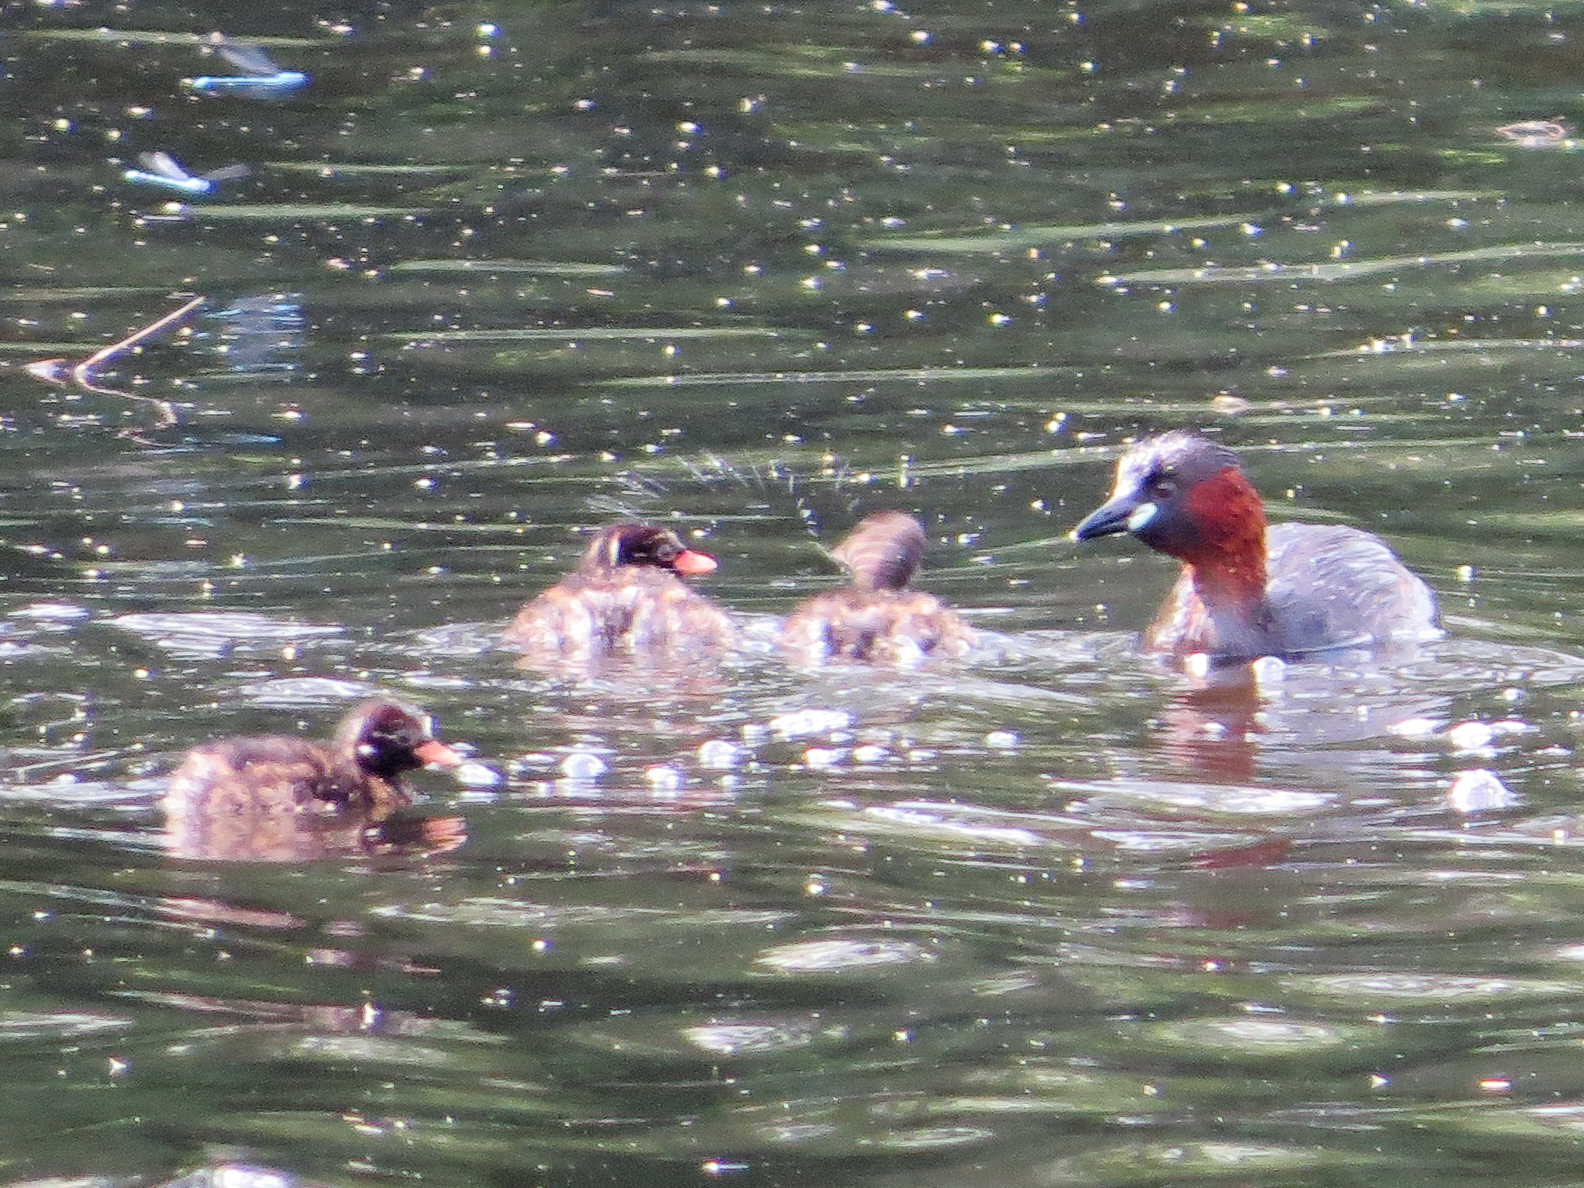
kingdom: Animalia
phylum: Chordata
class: Aves
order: Podicipediformes
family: Podicipedidae
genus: Tachybaptus
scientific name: Tachybaptus ruficollis
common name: Little grebe
